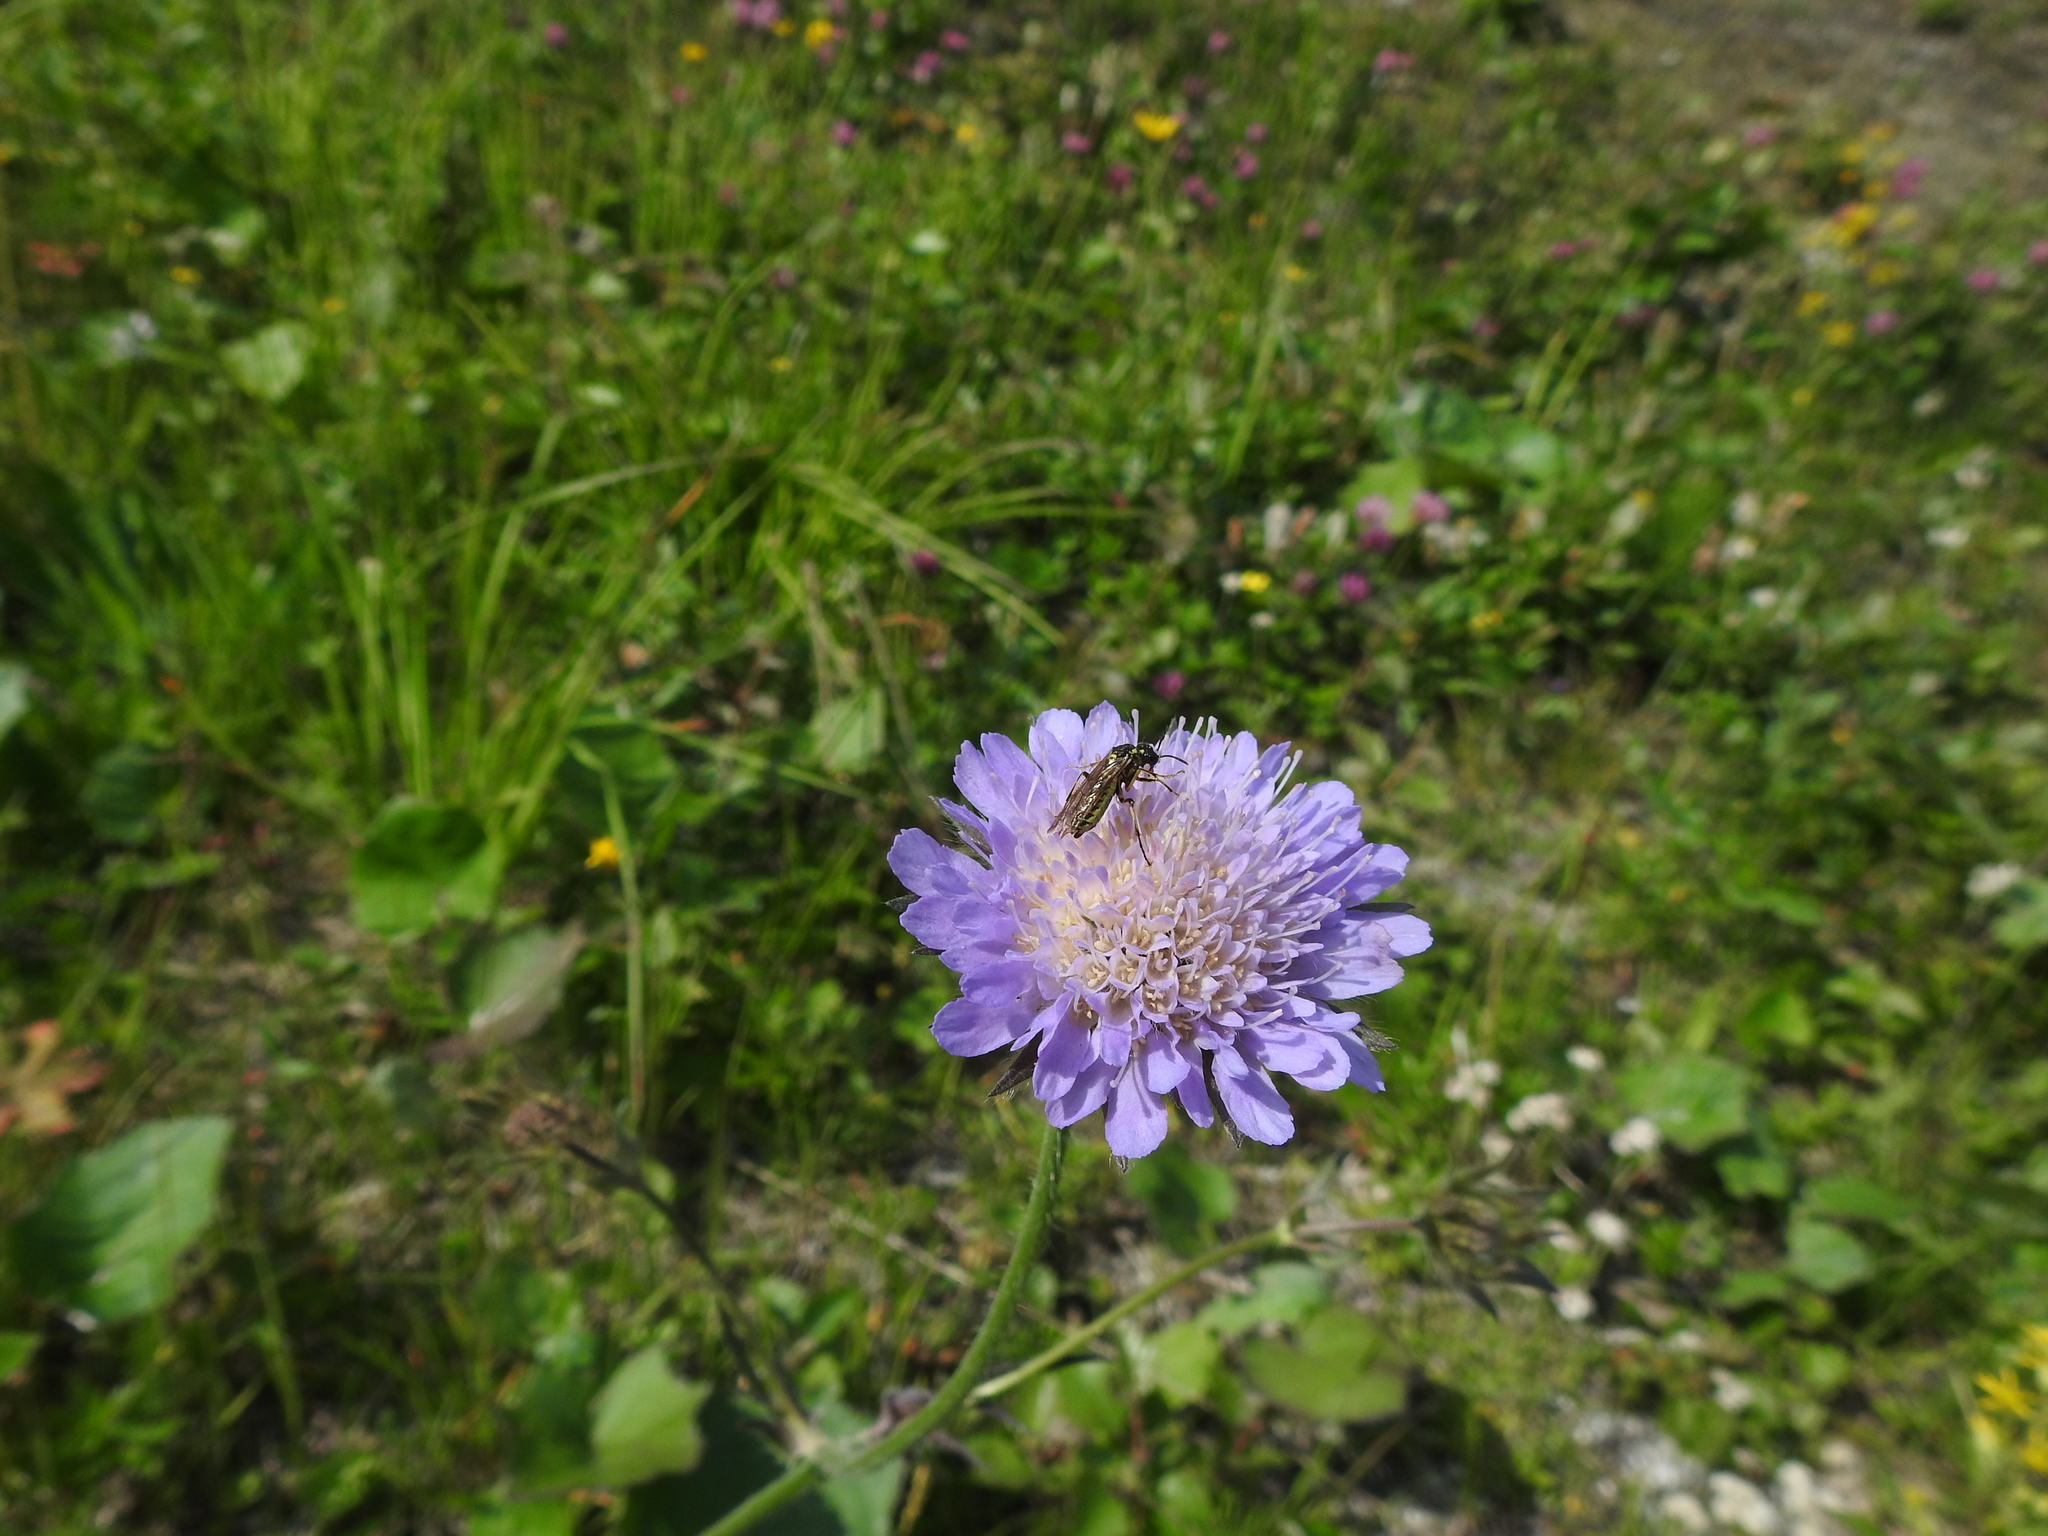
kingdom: Plantae
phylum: Tracheophyta
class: Magnoliopsida
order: Dipsacales
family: Caprifoliaceae
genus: Knautia
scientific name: Knautia arvensis
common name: Field scabiosa
